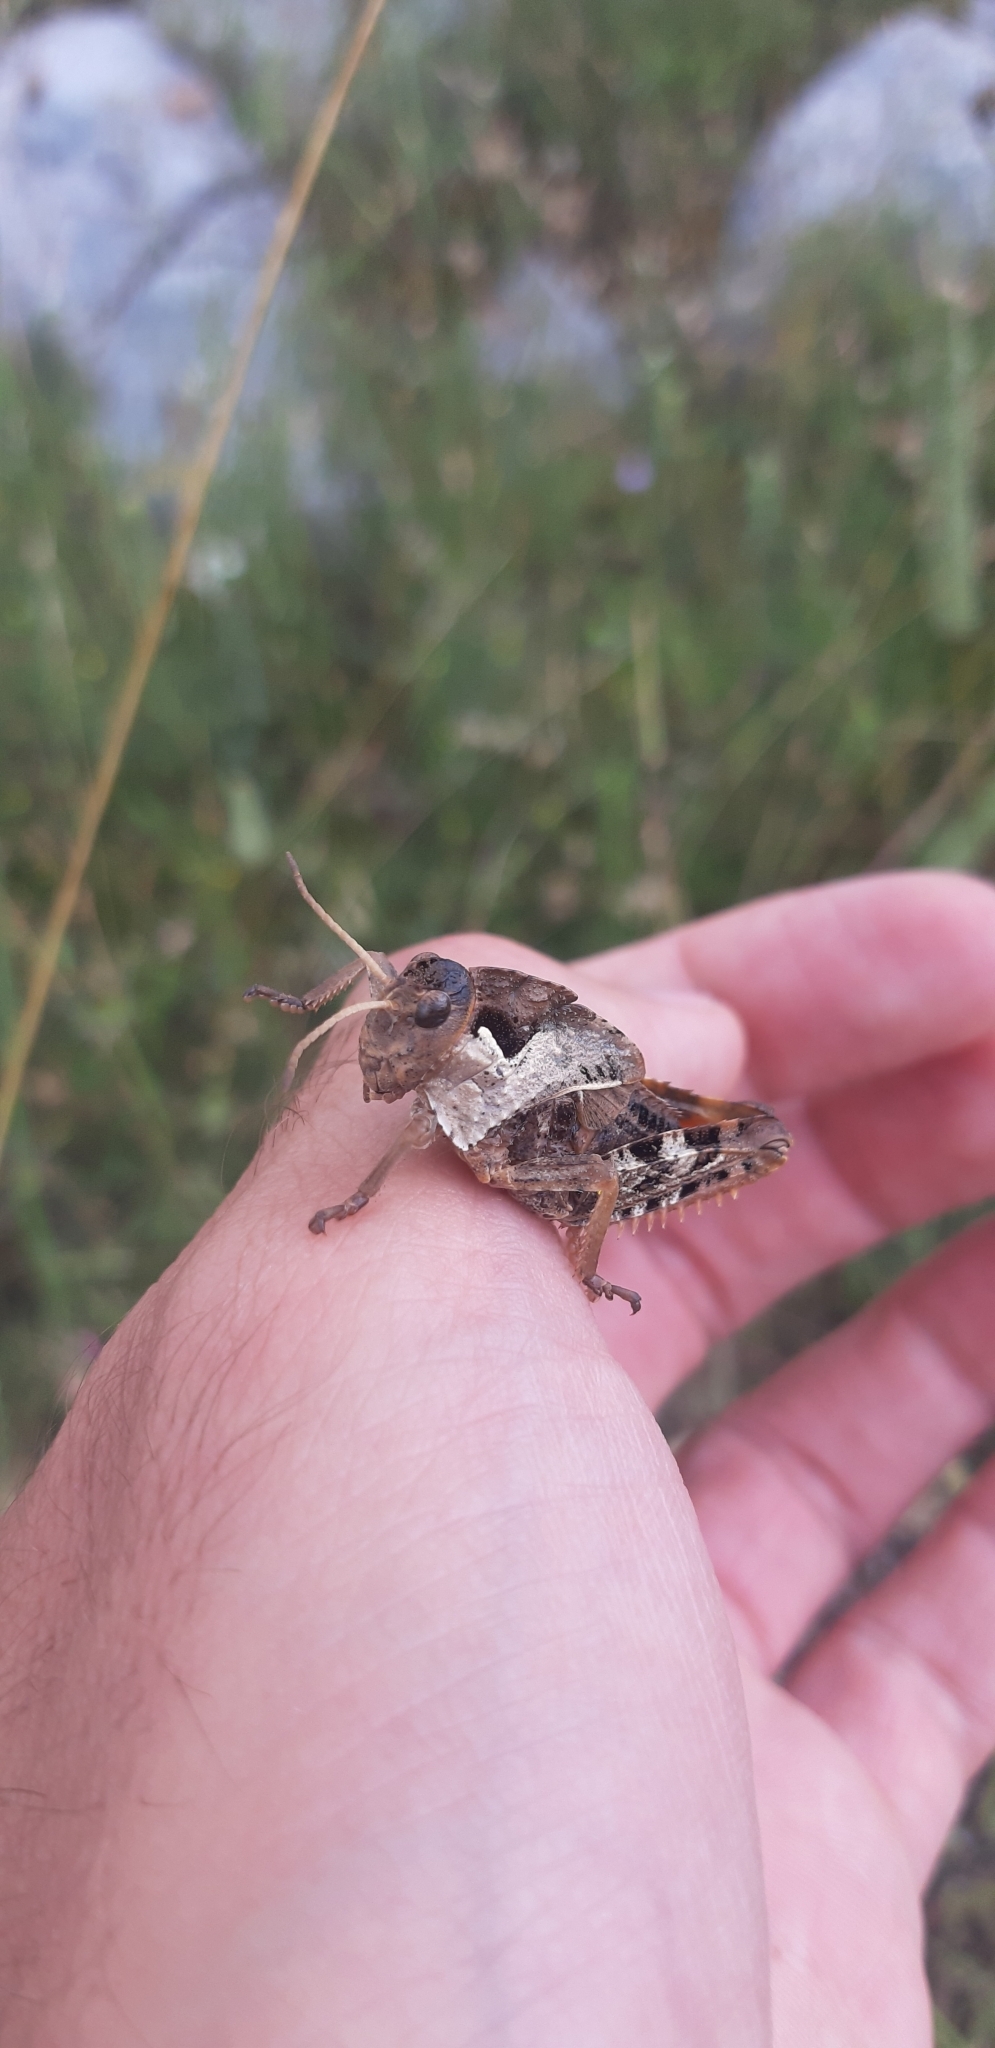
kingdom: Animalia
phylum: Arthropoda
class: Insecta
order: Orthoptera
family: Pamphagidae
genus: Prionotropis
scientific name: Prionotropis appula
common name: Apulian stone grasshopper
